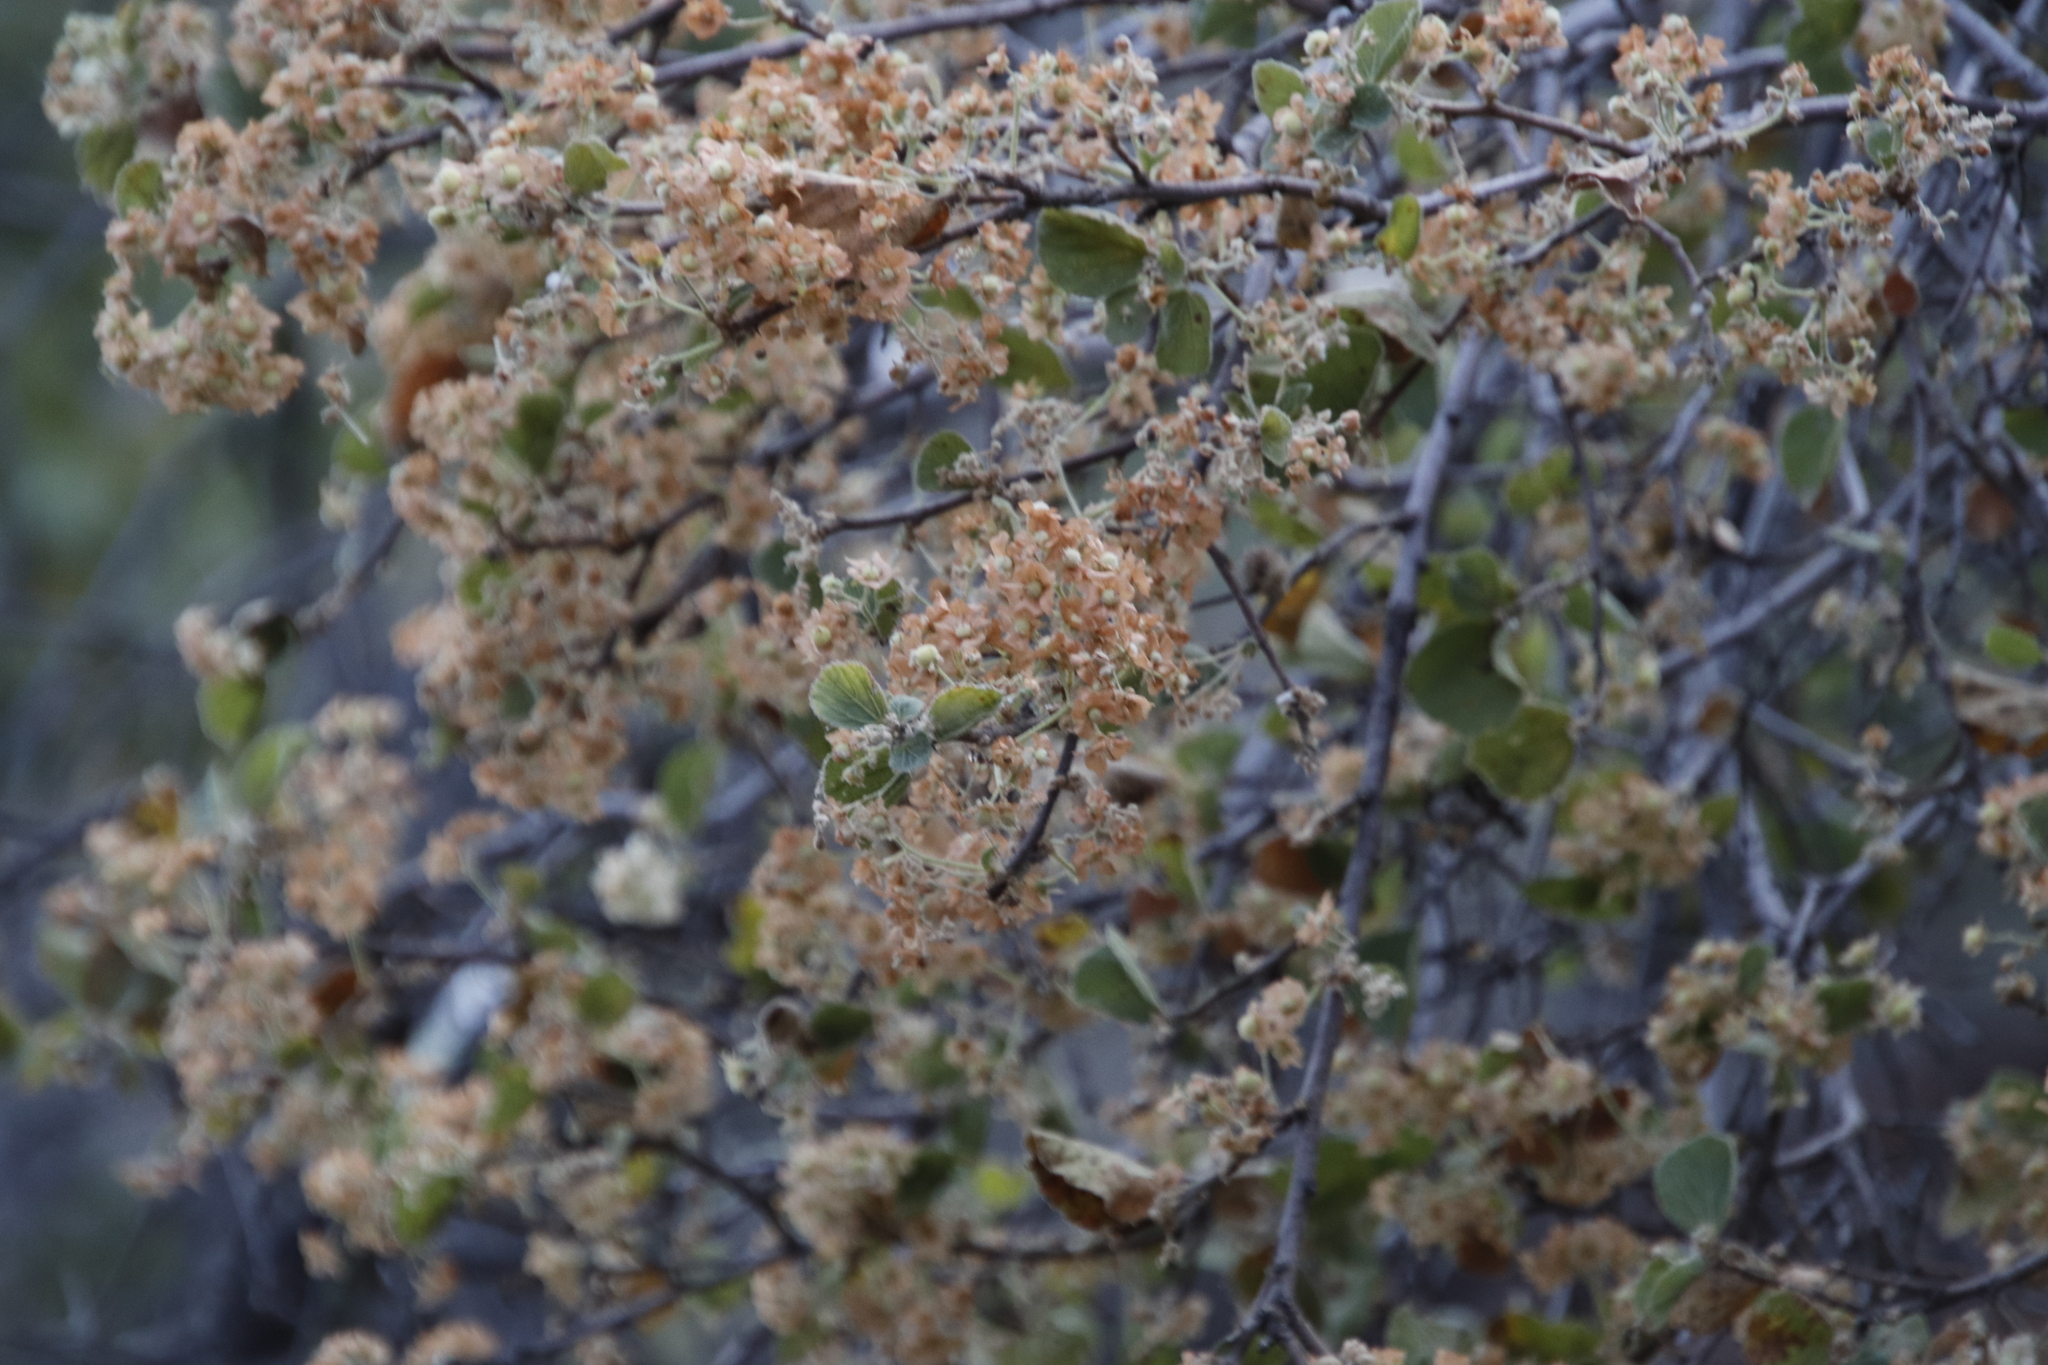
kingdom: Plantae
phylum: Tracheophyta
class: Magnoliopsida
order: Malvales
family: Malvaceae
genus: Dombeya
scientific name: Dombeya rotundifolia
